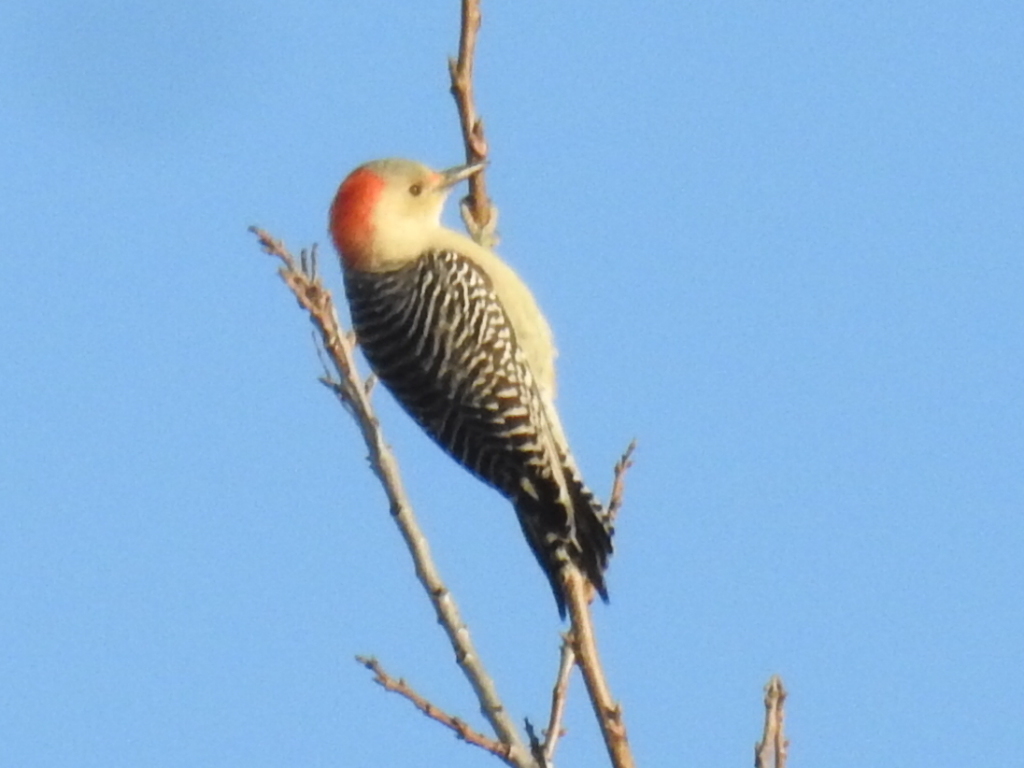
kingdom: Animalia
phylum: Chordata
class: Aves
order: Piciformes
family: Picidae
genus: Melanerpes
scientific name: Melanerpes carolinus
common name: Red-bellied woodpecker
